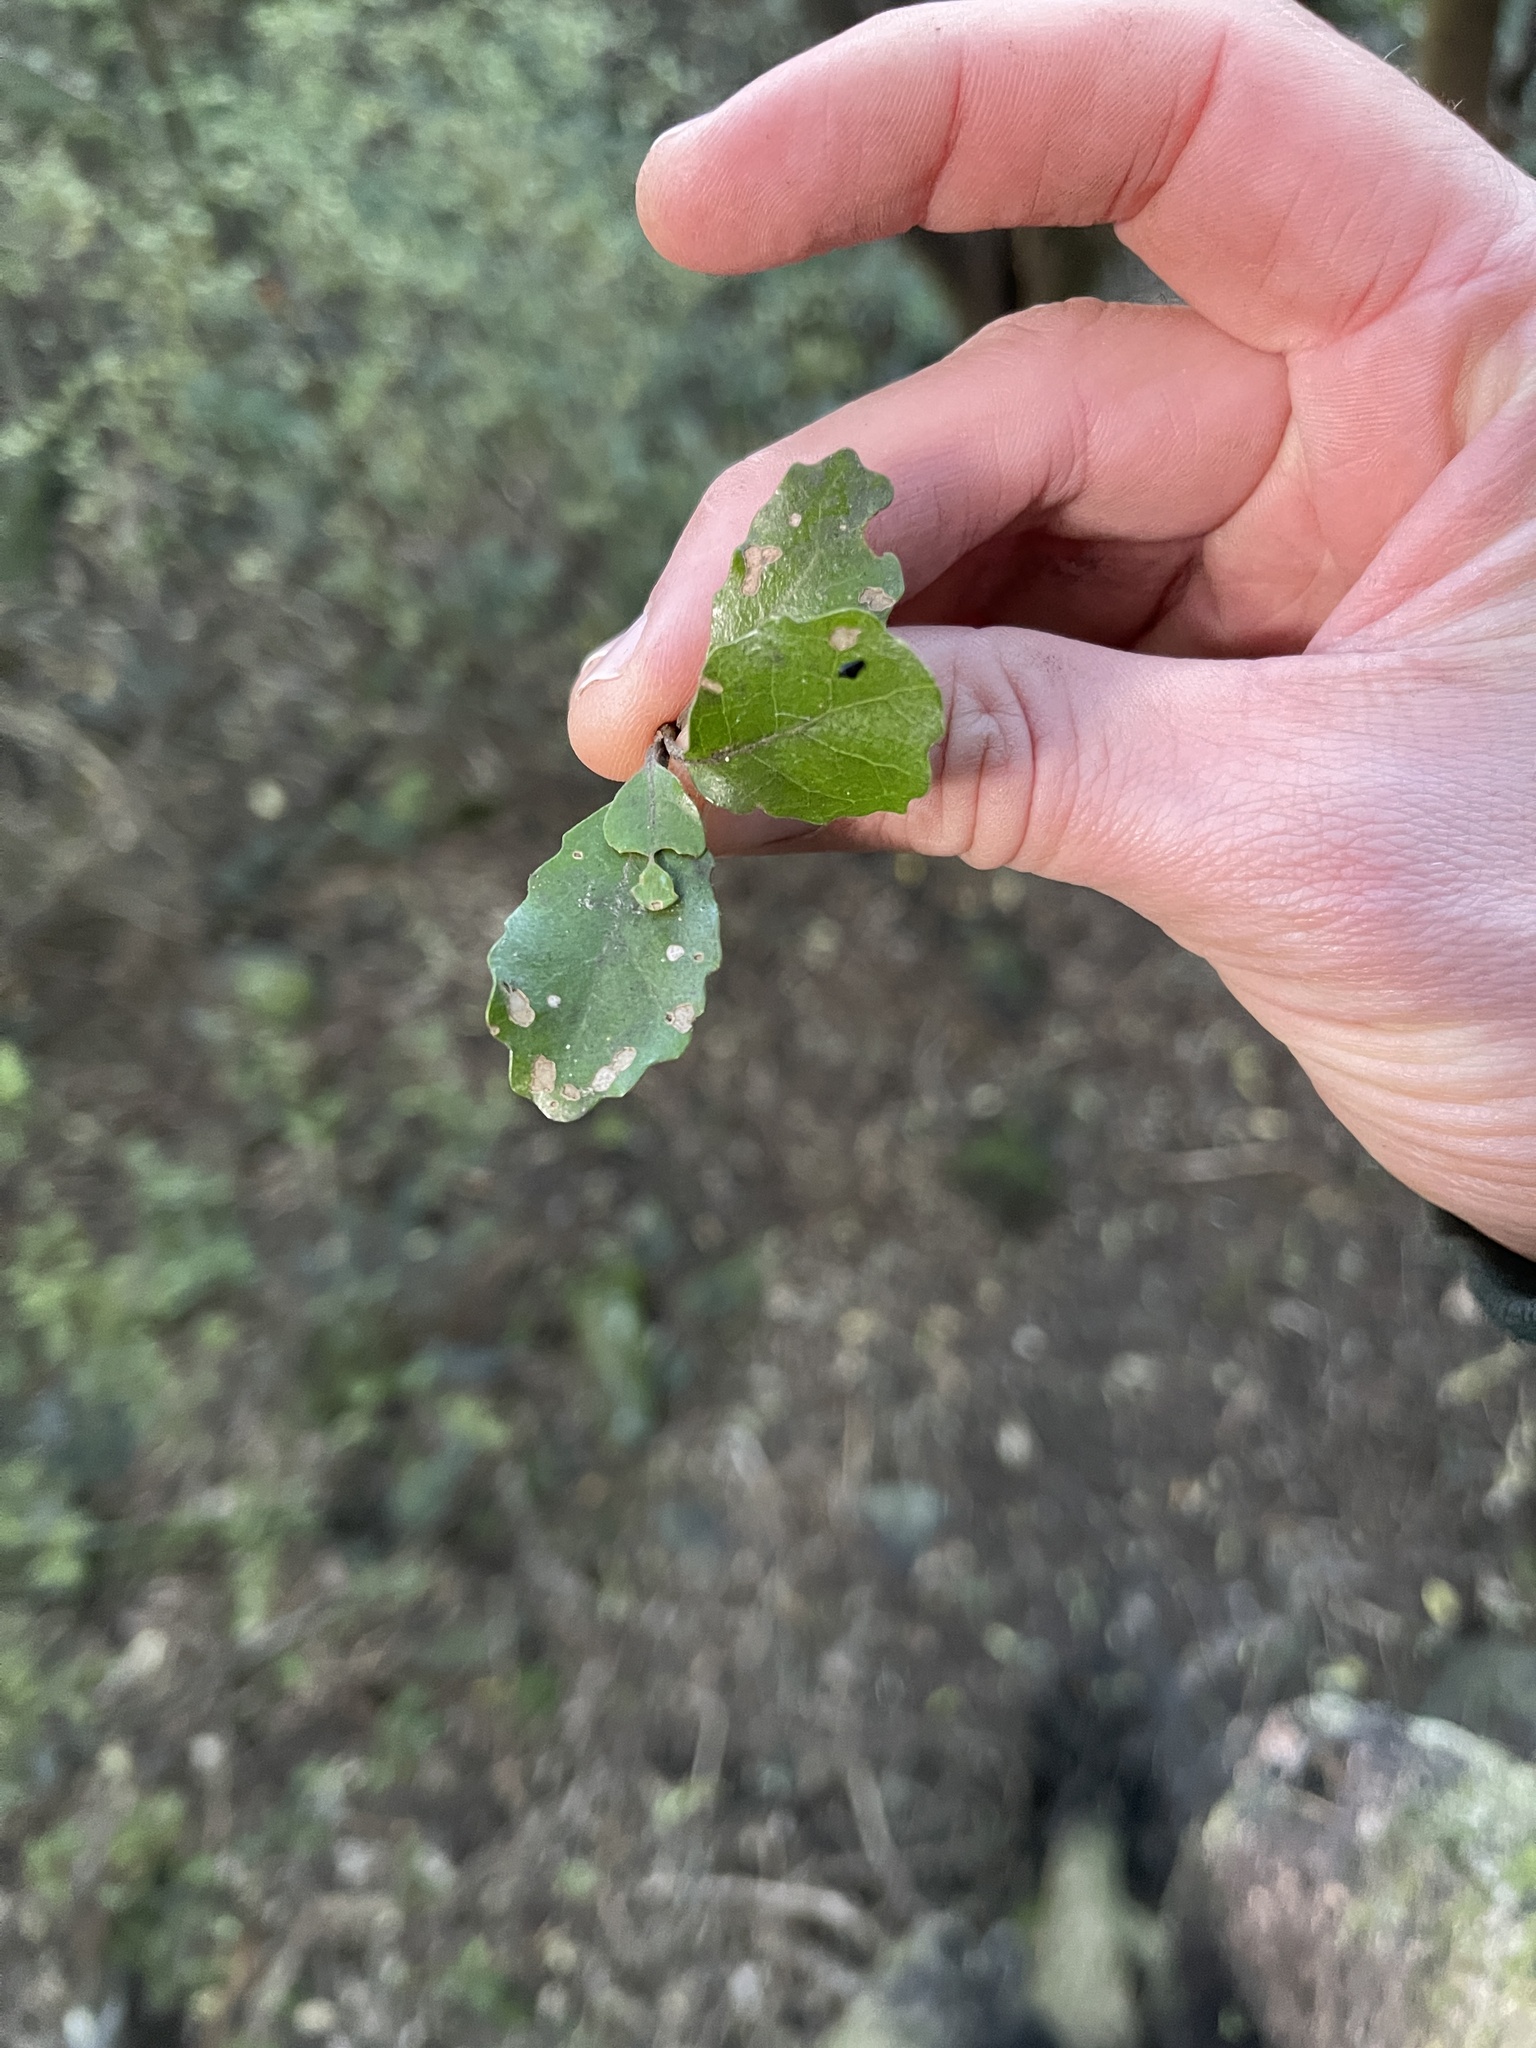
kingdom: Plantae
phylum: Tracheophyta
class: Magnoliopsida
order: Laurales
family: Monimiaceae
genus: Hedycarya
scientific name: Hedycarya arborea
